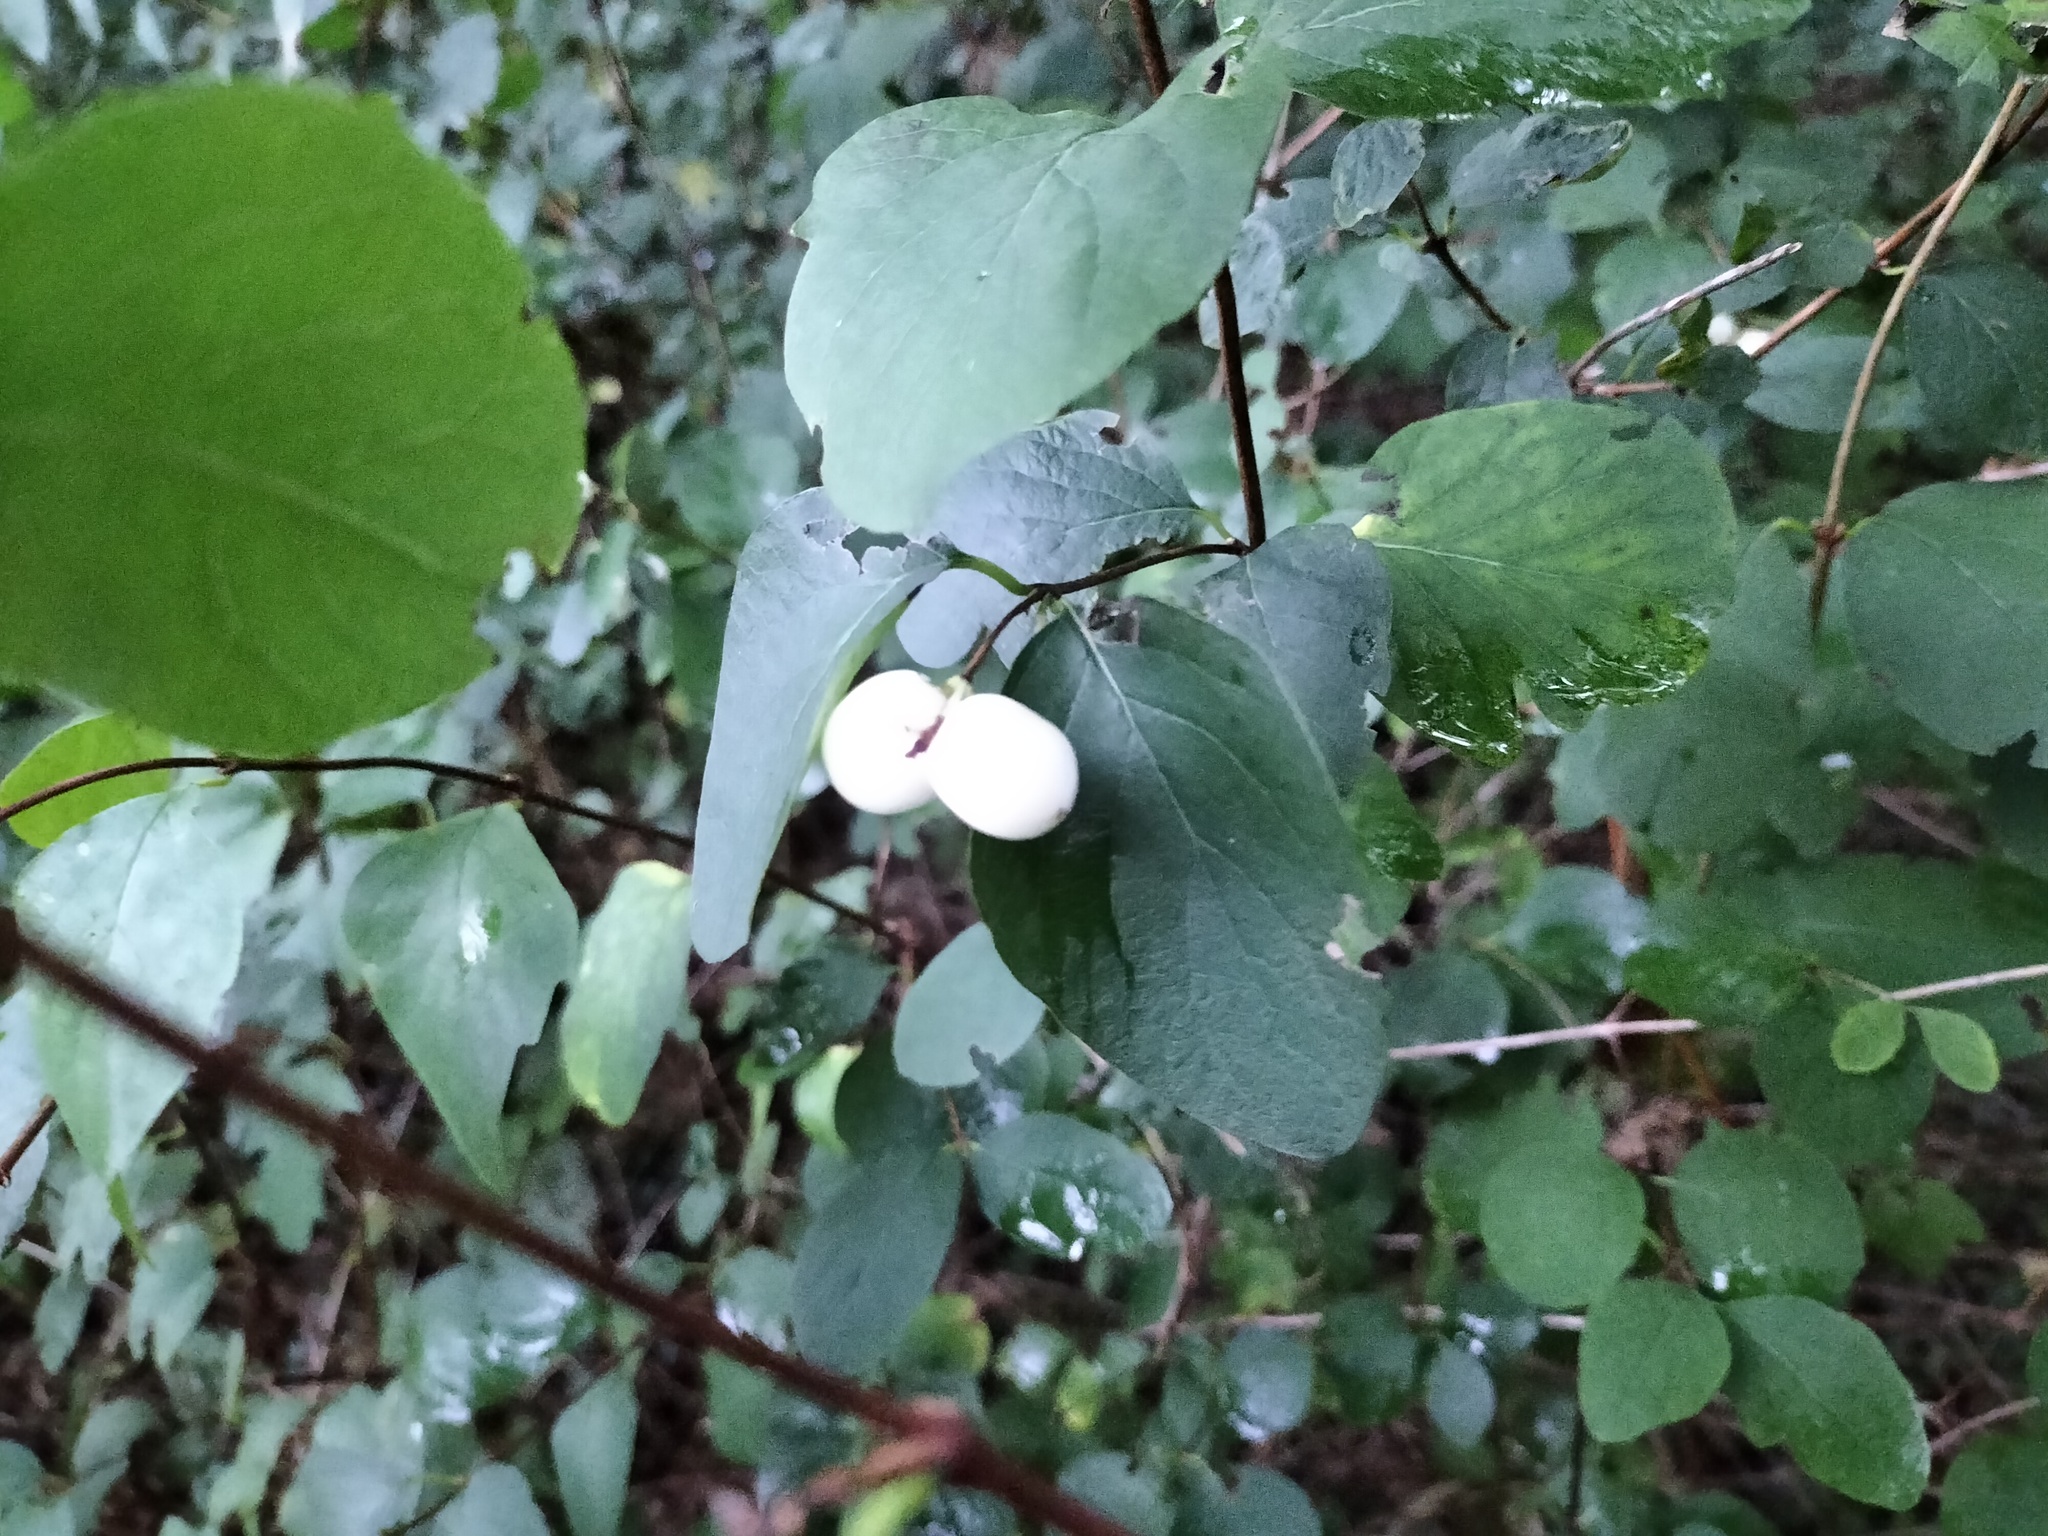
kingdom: Plantae
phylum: Tracheophyta
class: Magnoliopsida
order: Dipsacales
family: Caprifoliaceae
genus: Symphoricarpos
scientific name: Symphoricarpos albus
